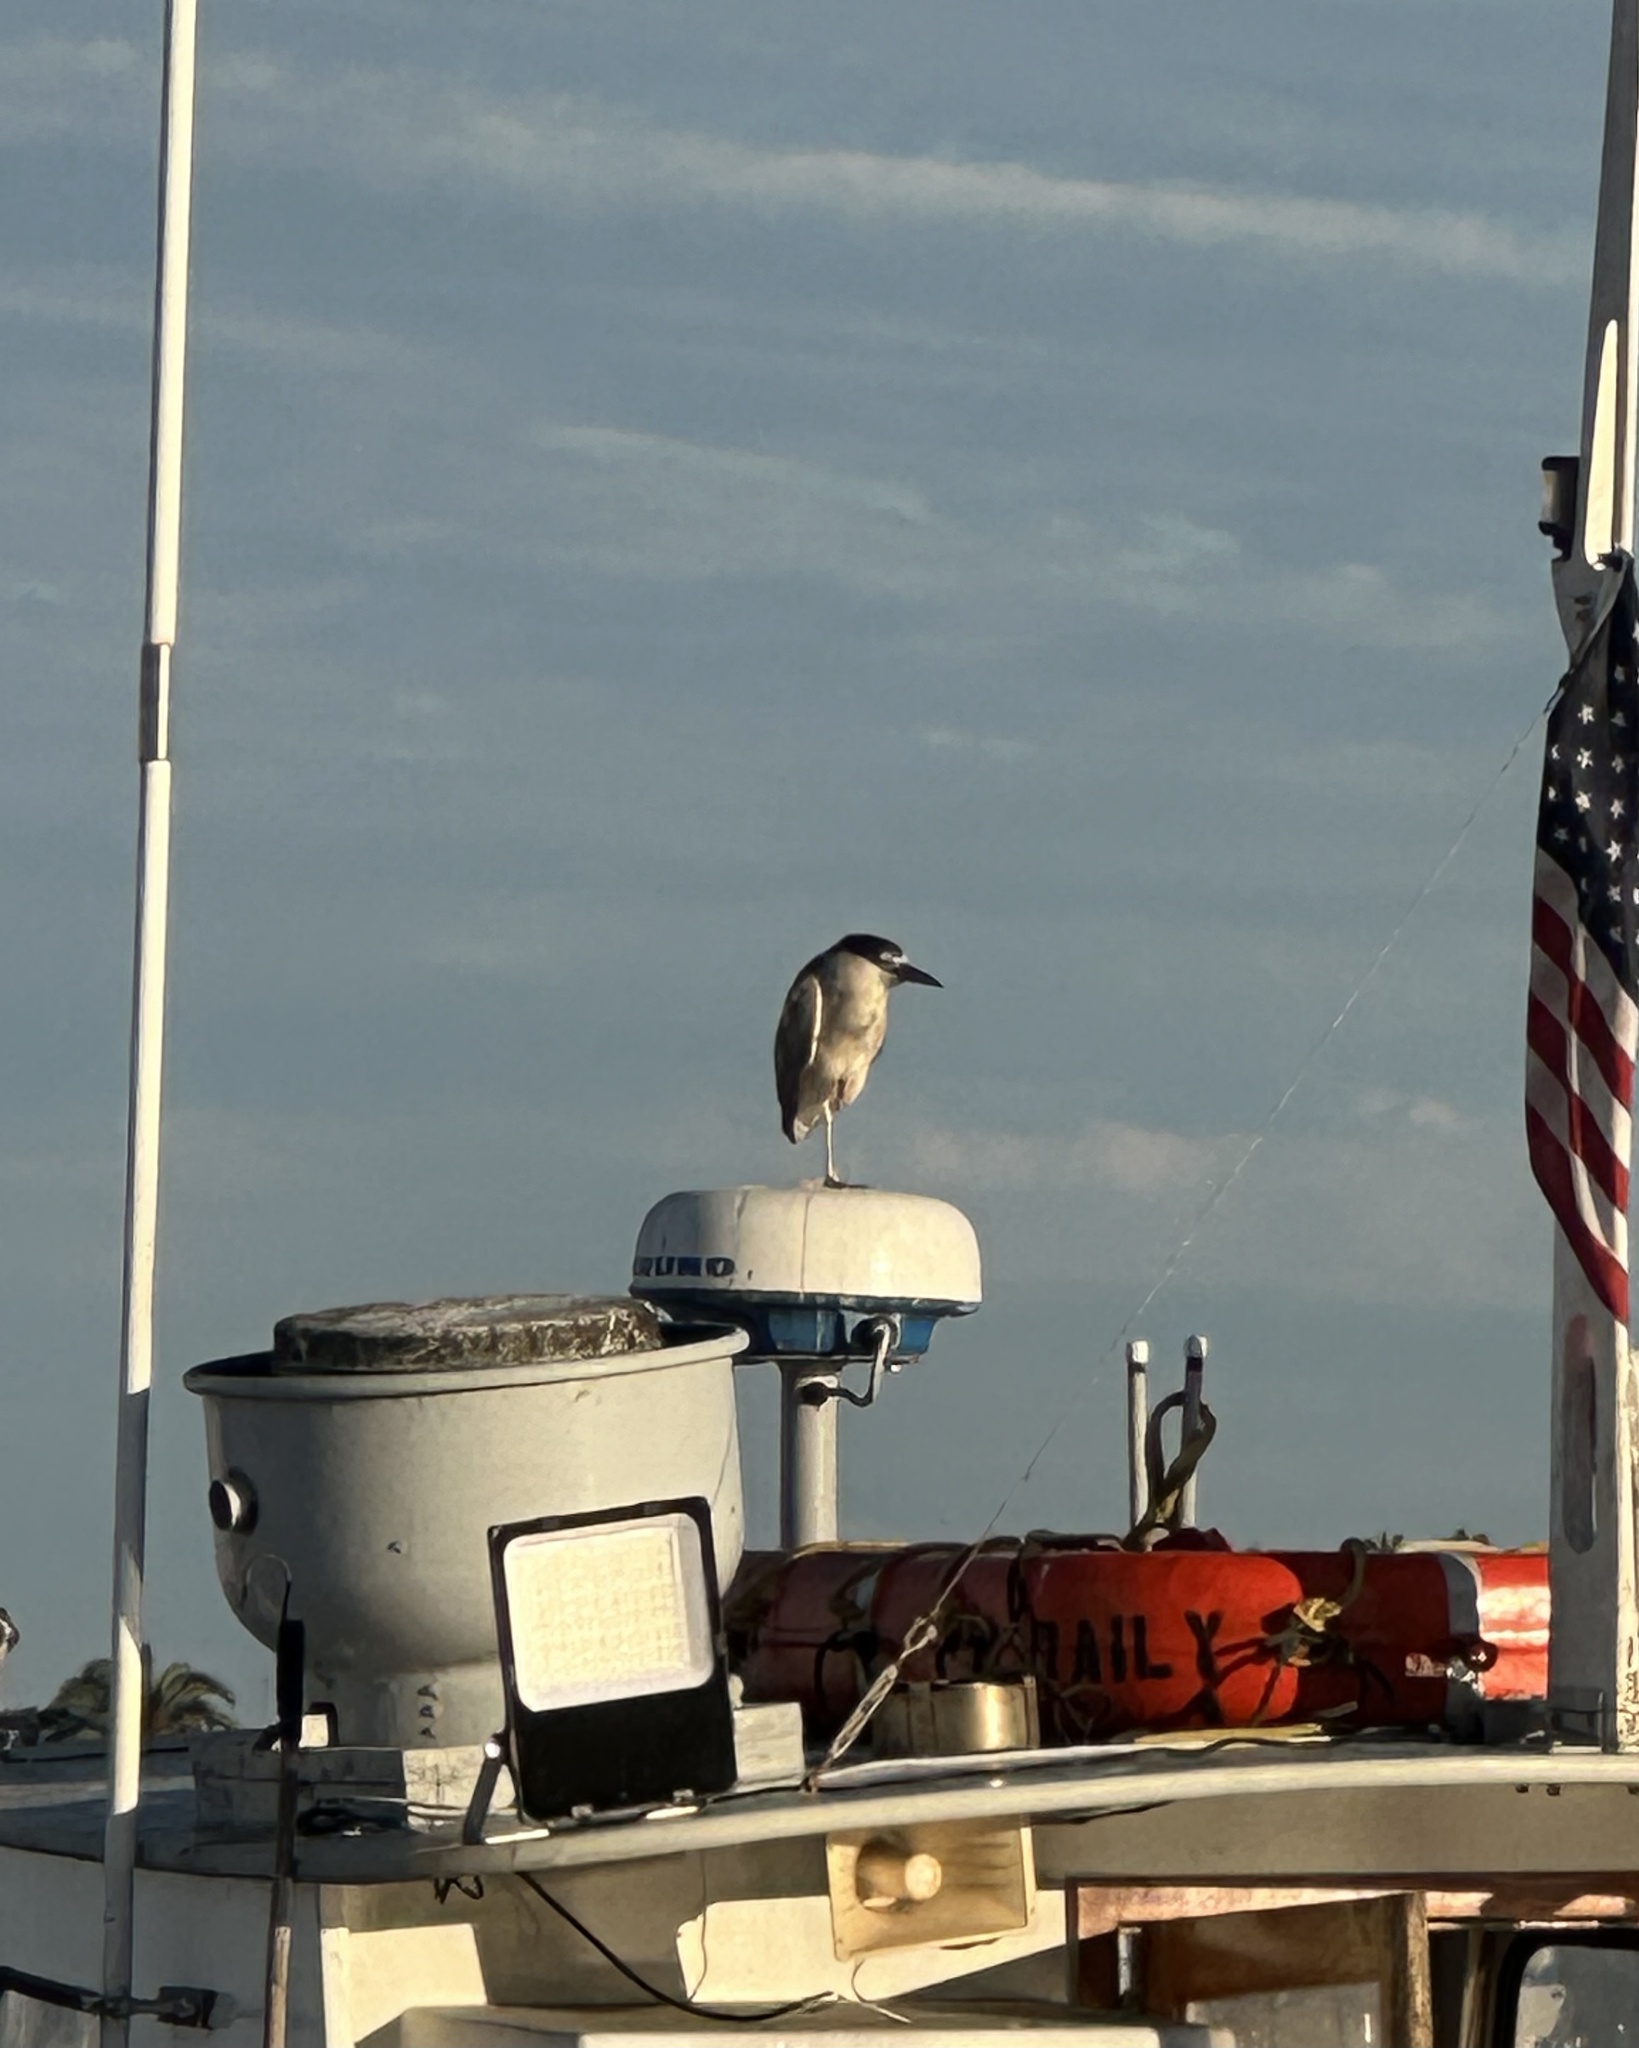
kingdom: Animalia
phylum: Chordata
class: Aves
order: Pelecaniformes
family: Ardeidae
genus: Nycticorax
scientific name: Nycticorax nycticorax
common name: Black-crowned night heron
